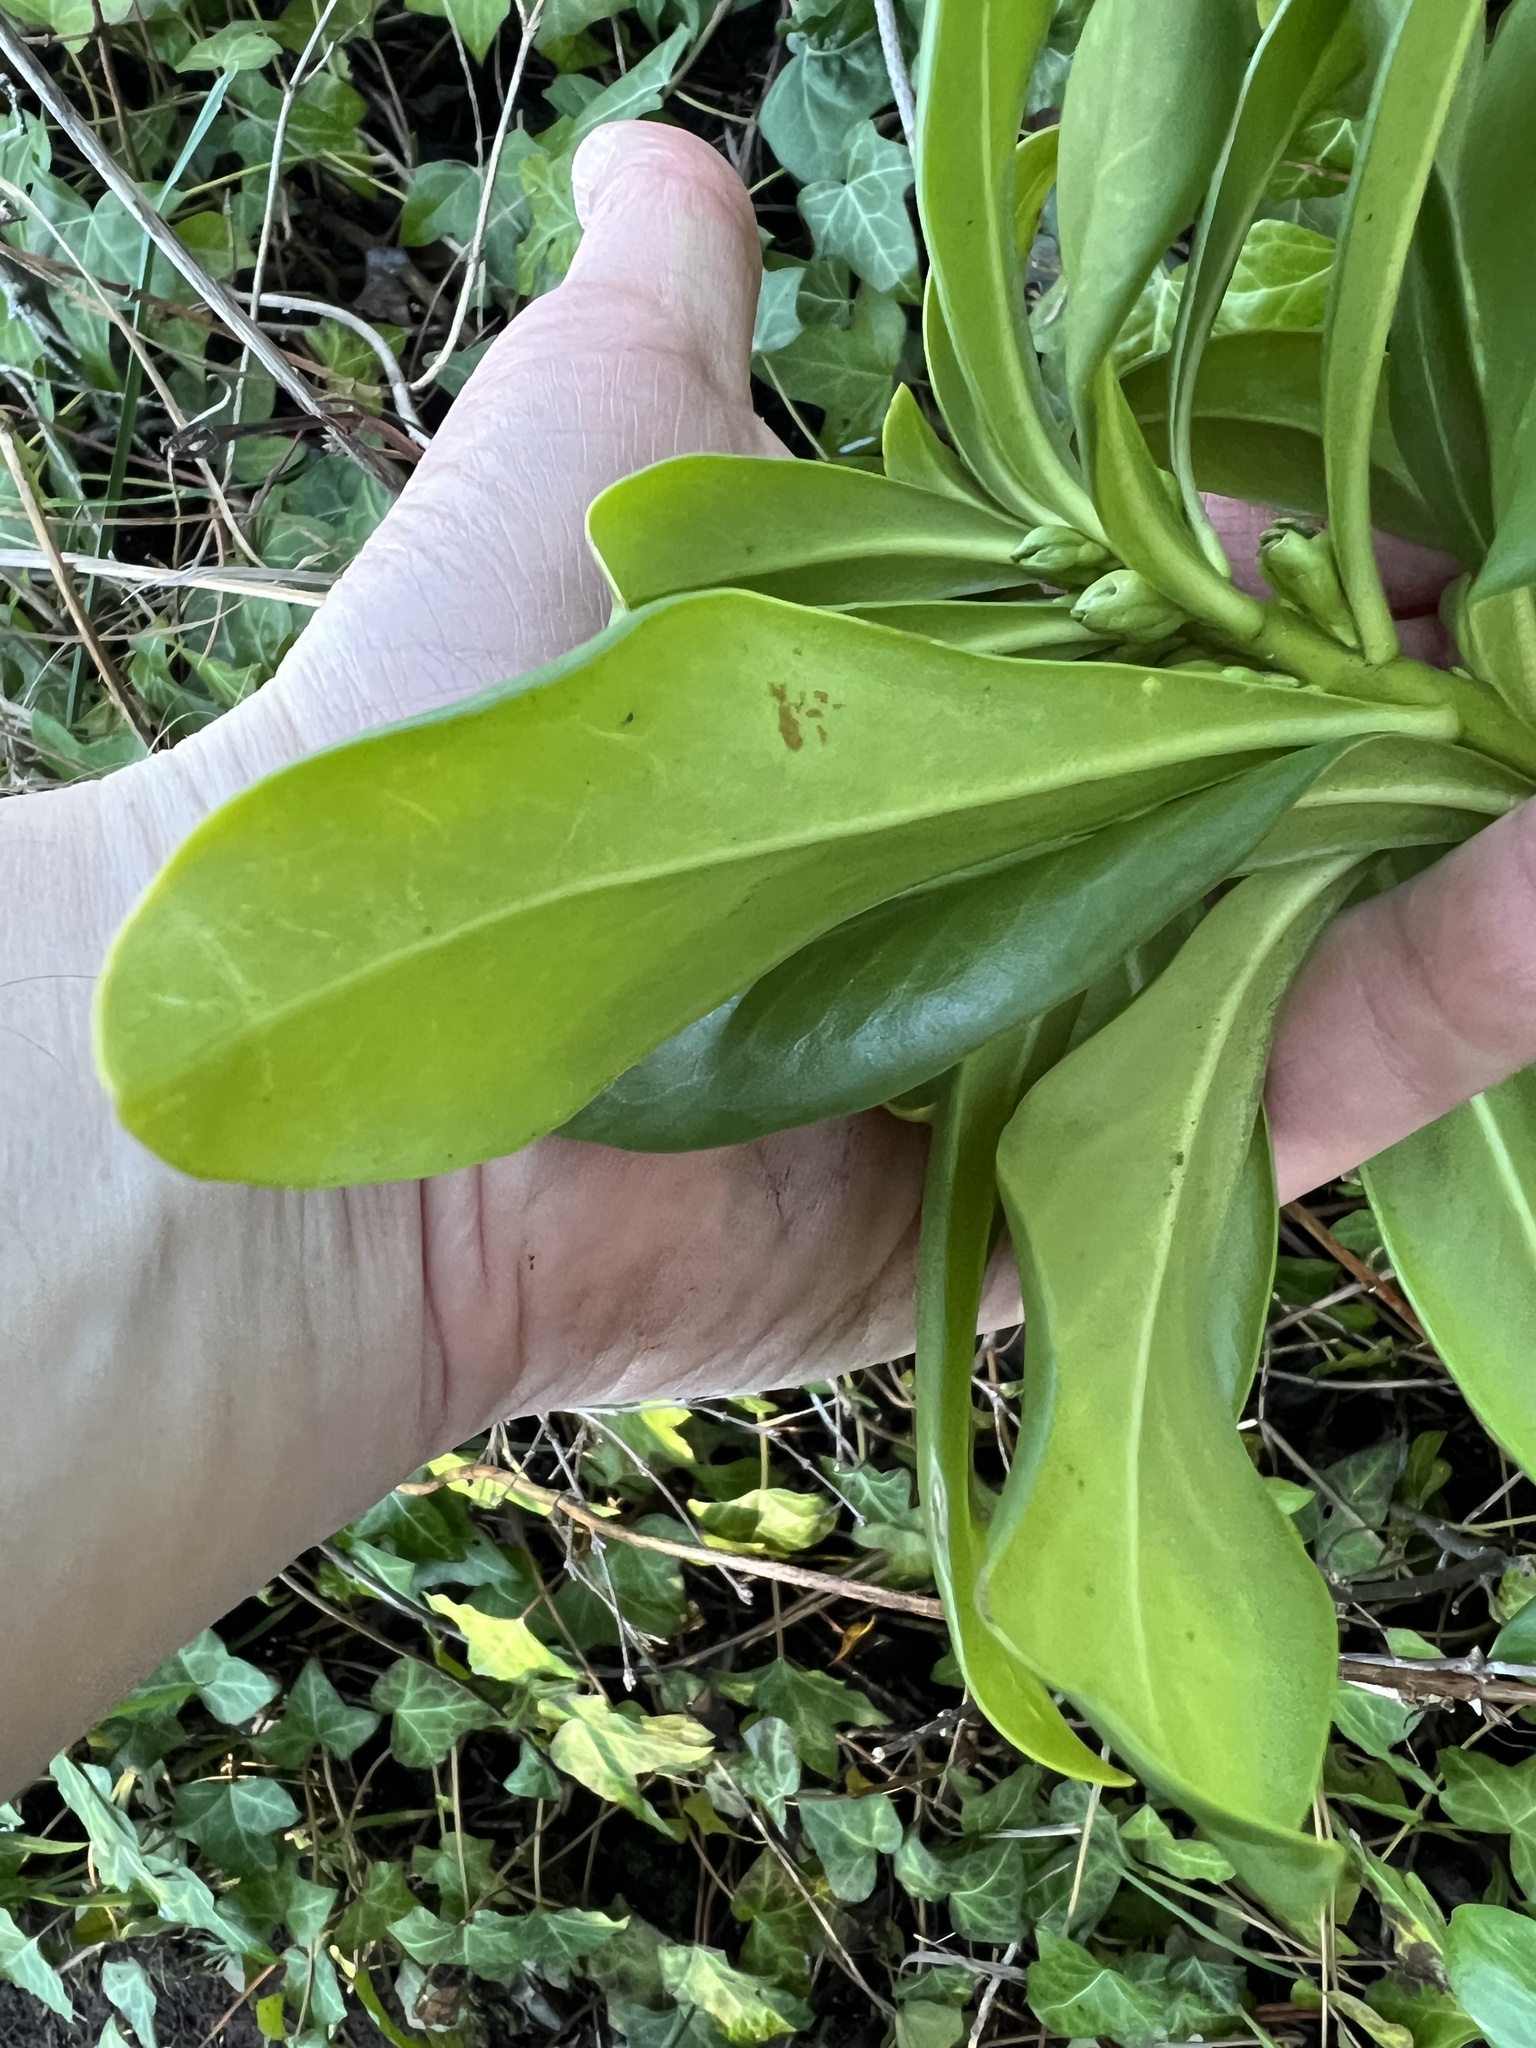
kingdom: Plantae
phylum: Tracheophyta
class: Magnoliopsida
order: Malvales
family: Thymelaeaceae
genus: Daphne
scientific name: Daphne laureola
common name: Spurge-laurel
